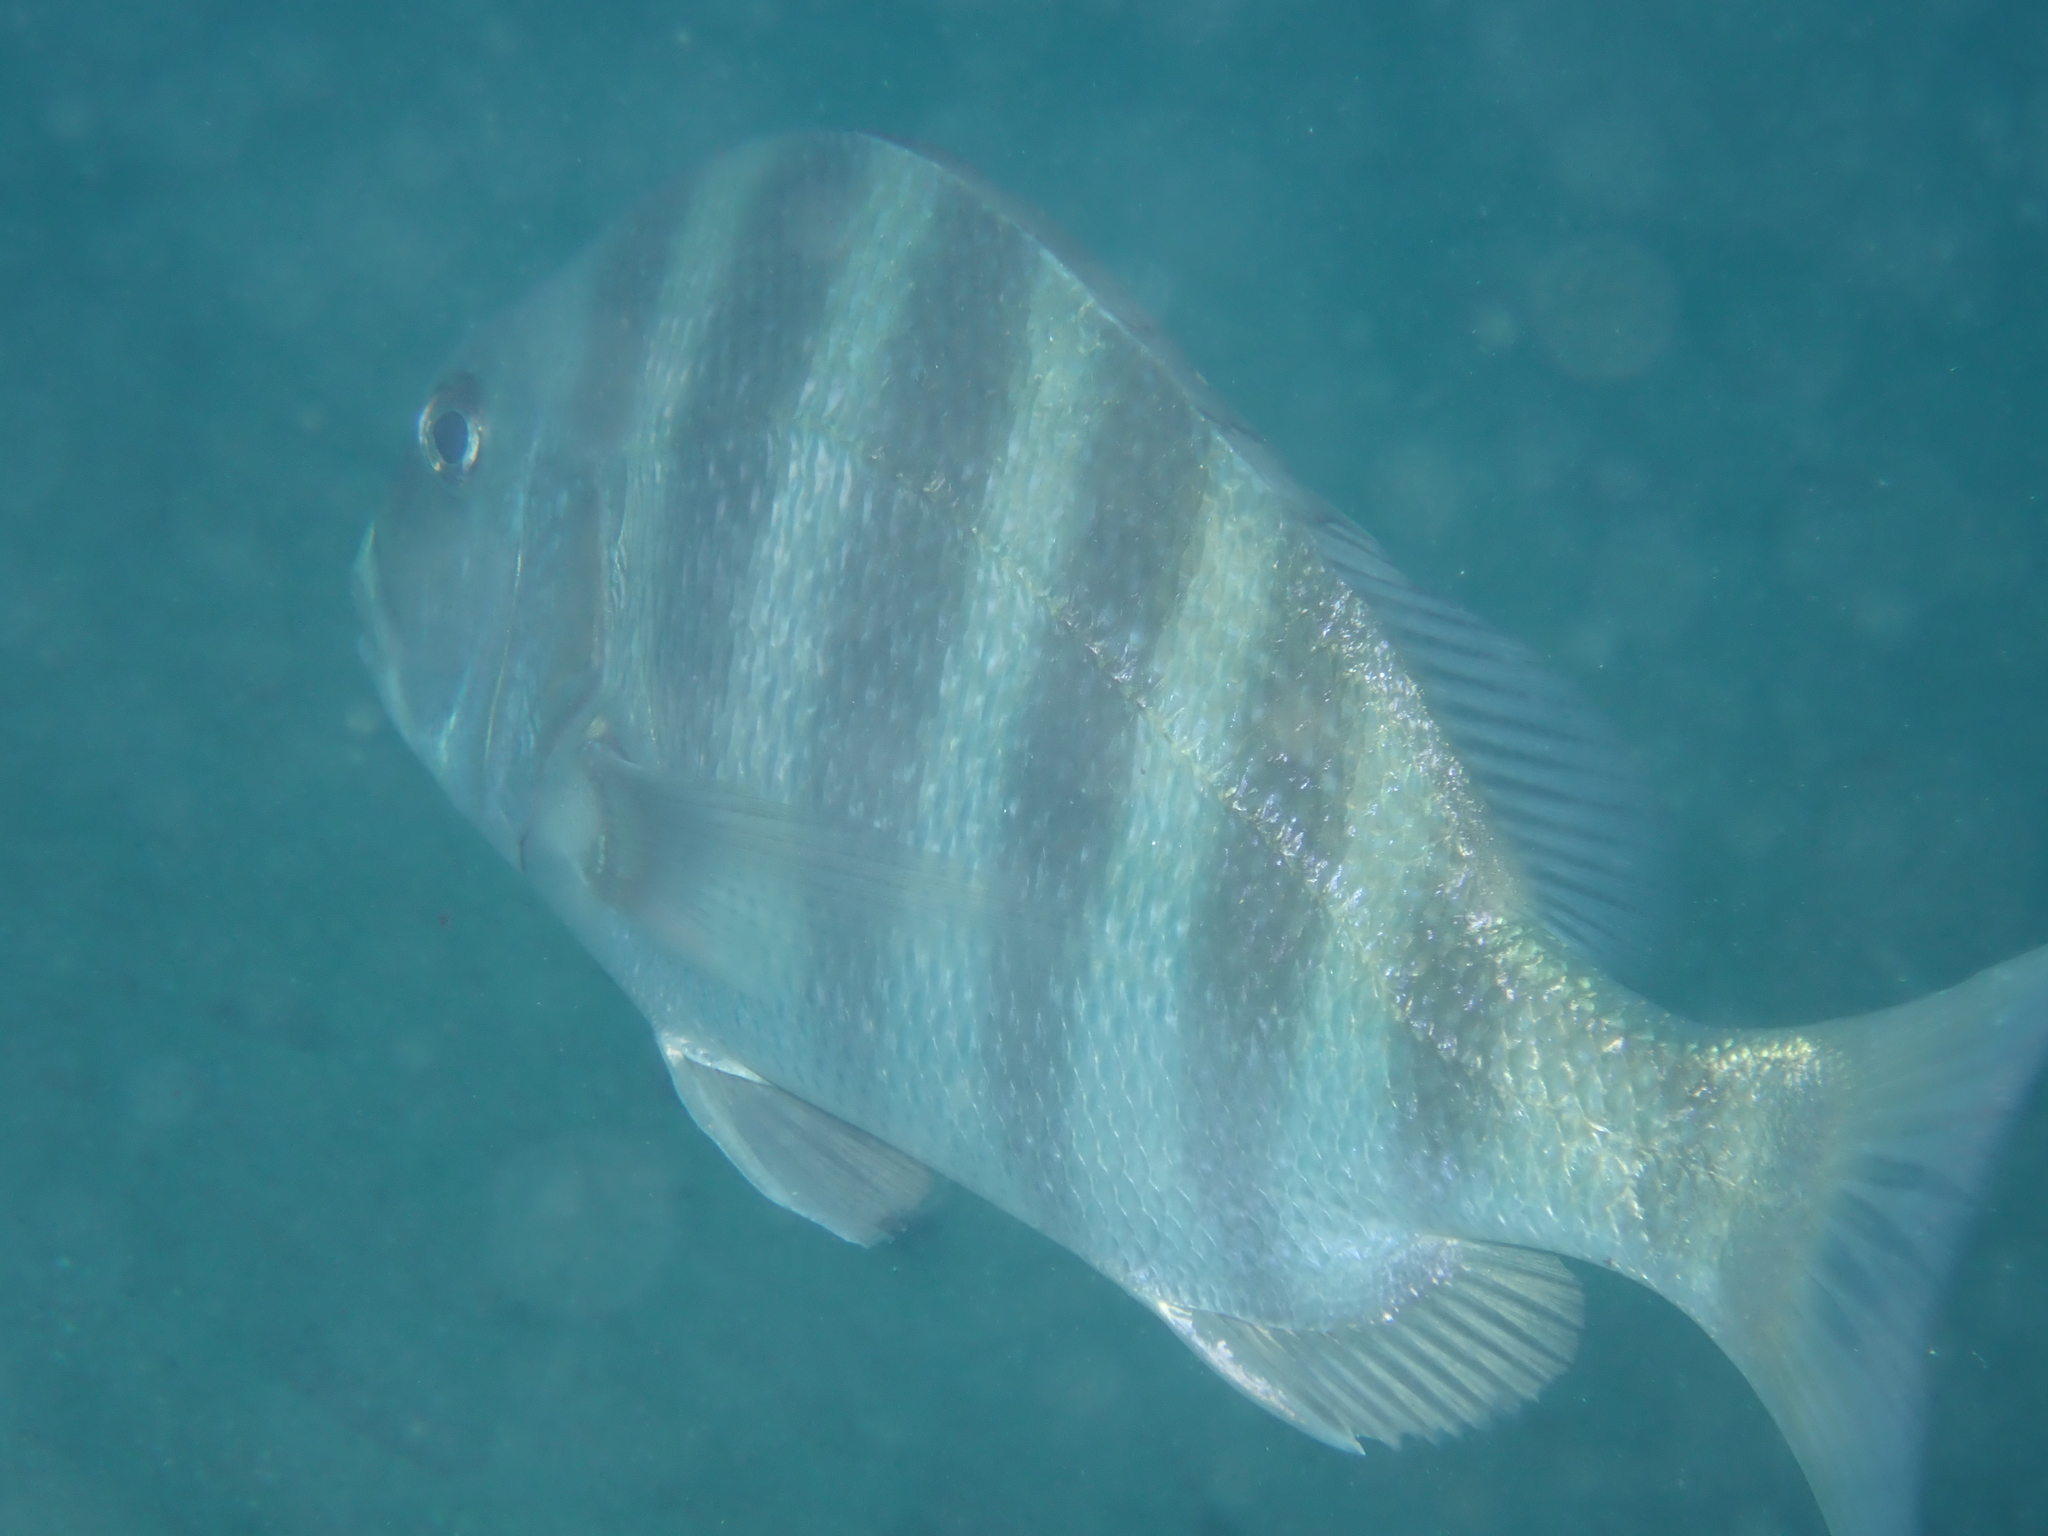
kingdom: Animalia
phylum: Chordata
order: Perciformes
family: Sparidae
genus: Archosargus
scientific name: Archosargus probatocephalus
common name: Sheepshead
